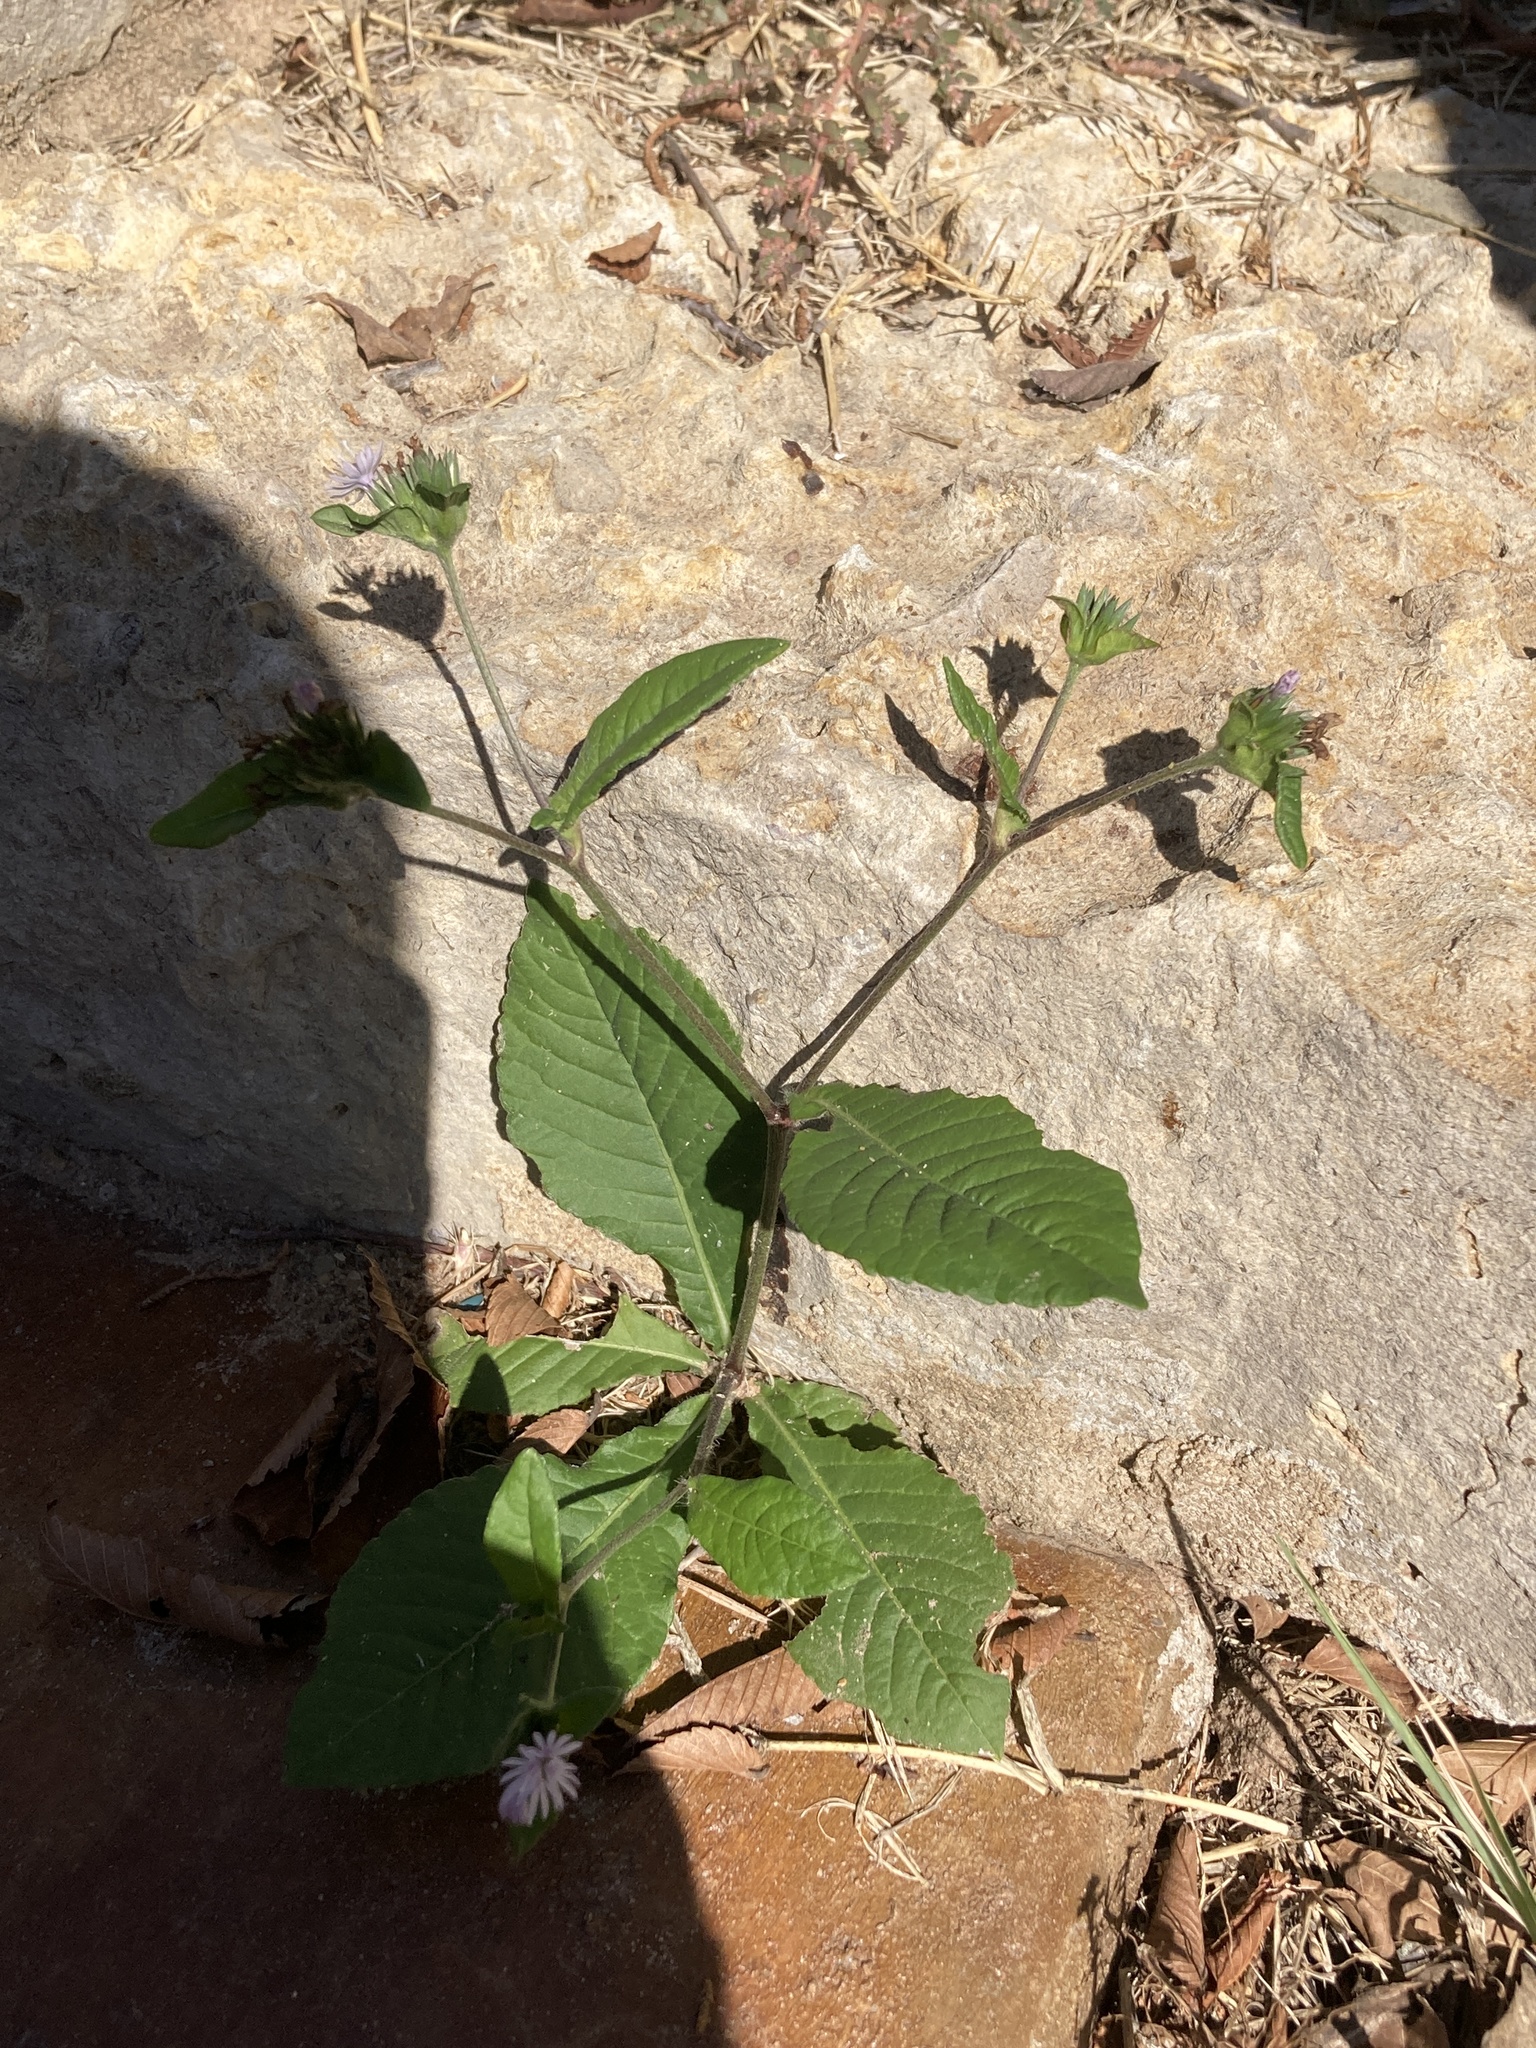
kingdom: Plantae
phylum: Tracheophyta
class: Magnoliopsida
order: Asterales
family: Asteraceae
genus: Elephantopus
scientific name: Elephantopus carolinianus
